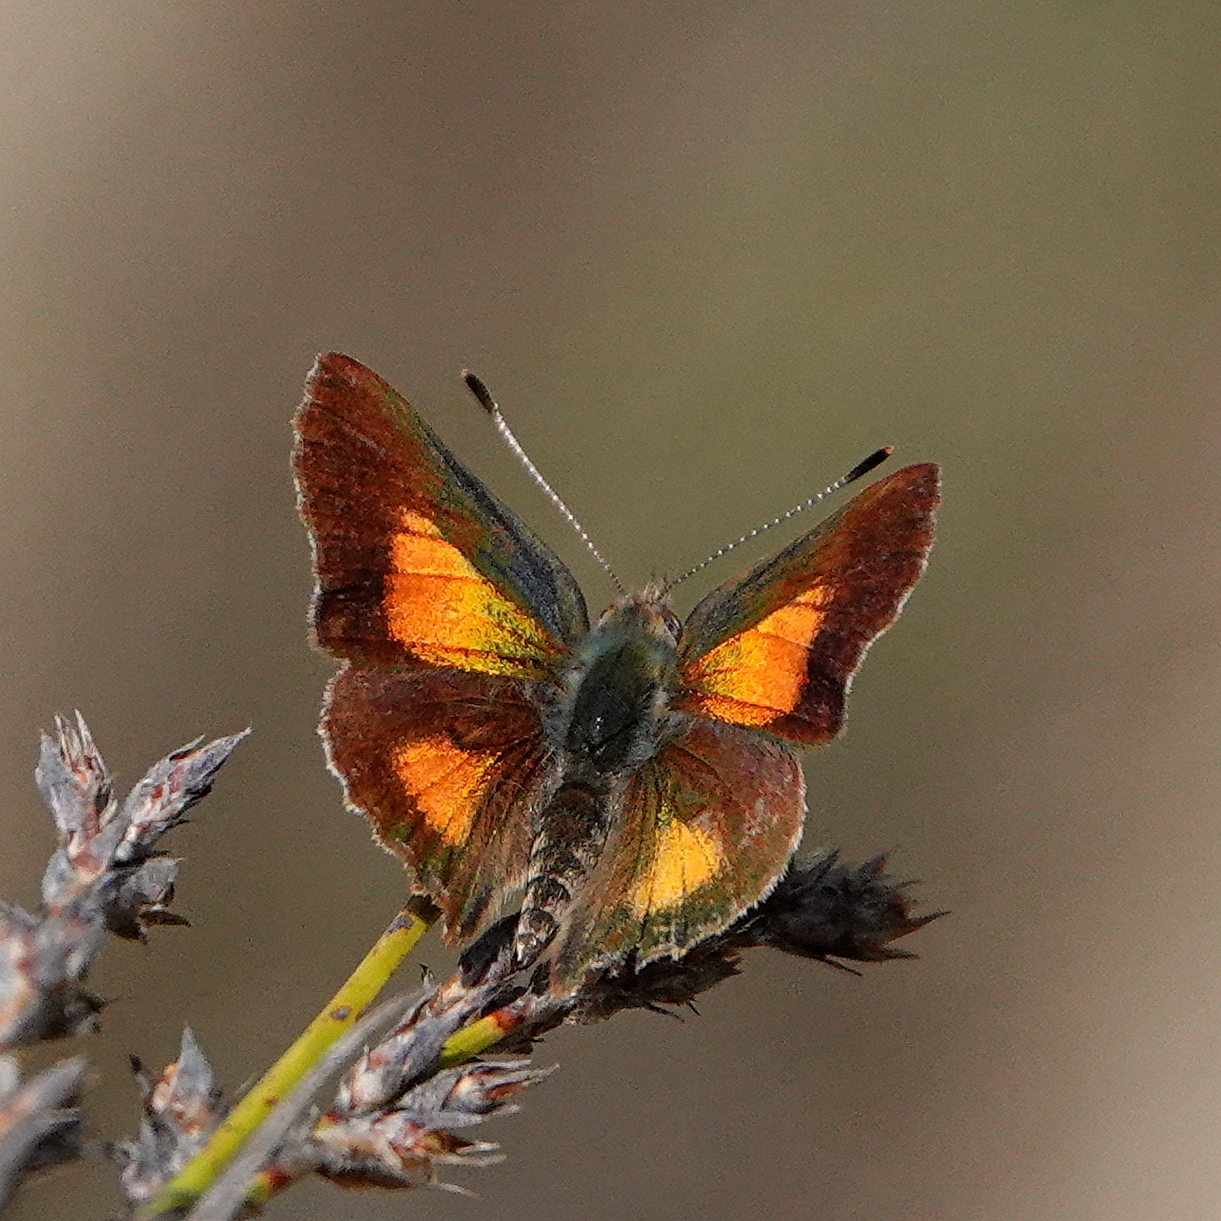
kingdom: Animalia
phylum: Arthropoda
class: Insecta
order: Lepidoptera
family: Lycaenidae
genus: Paralucia
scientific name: Paralucia aurifer
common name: Bright copper
